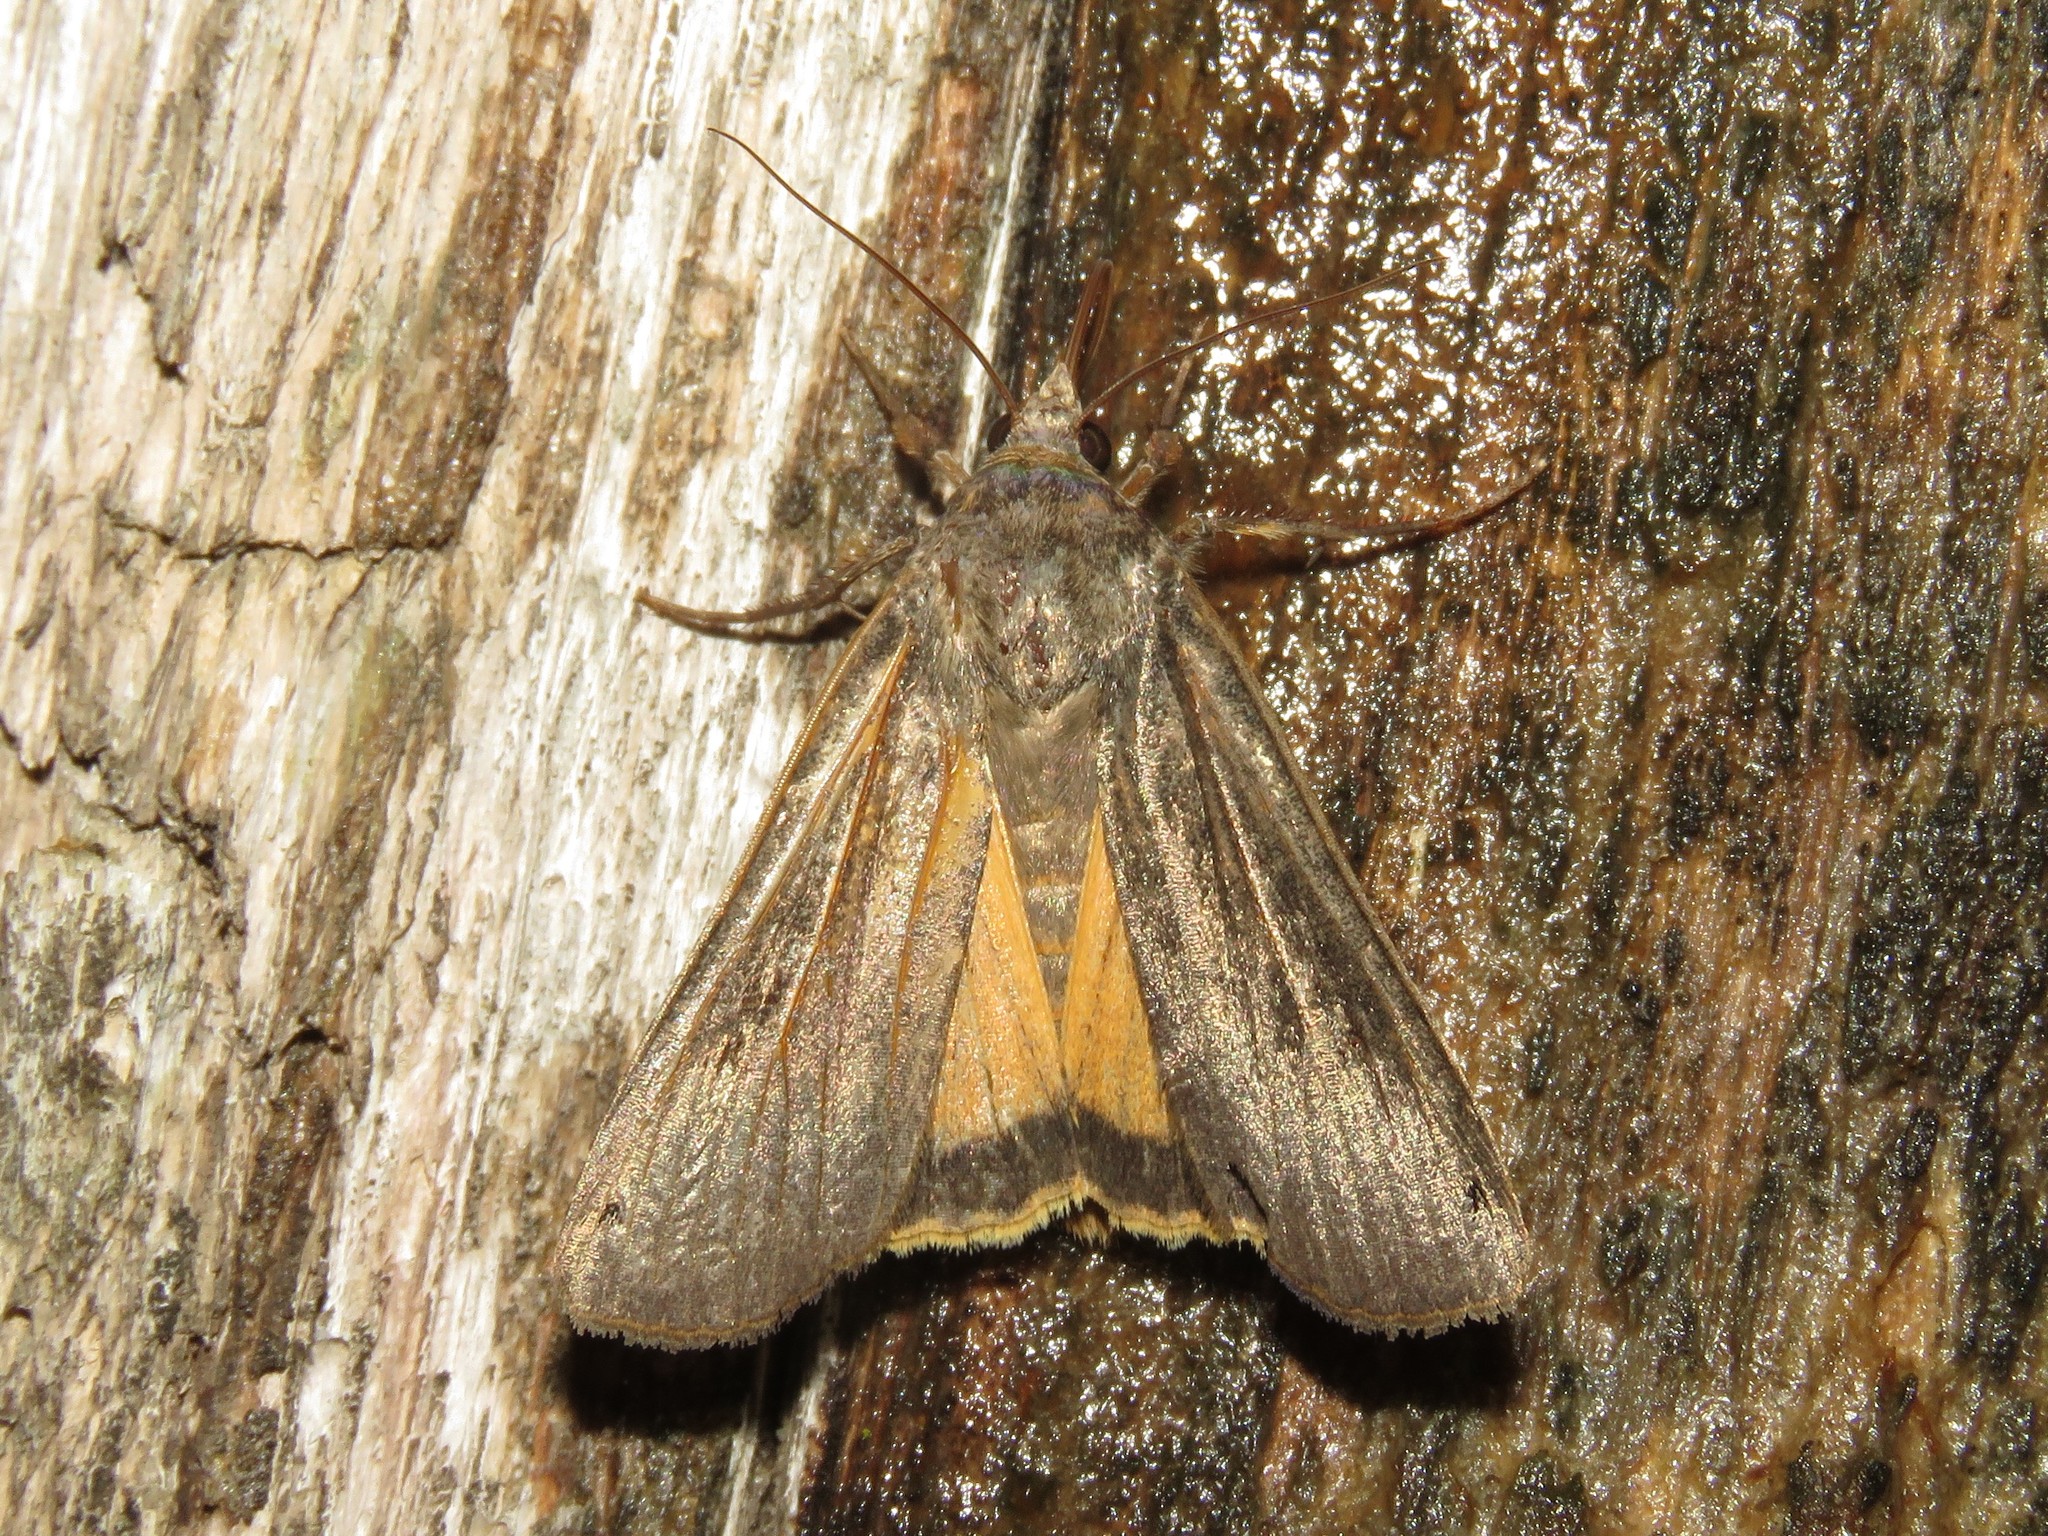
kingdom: Animalia
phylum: Arthropoda
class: Insecta
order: Lepidoptera
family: Noctuidae
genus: Noctua
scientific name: Noctua pronuba
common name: Large yellow underwing
